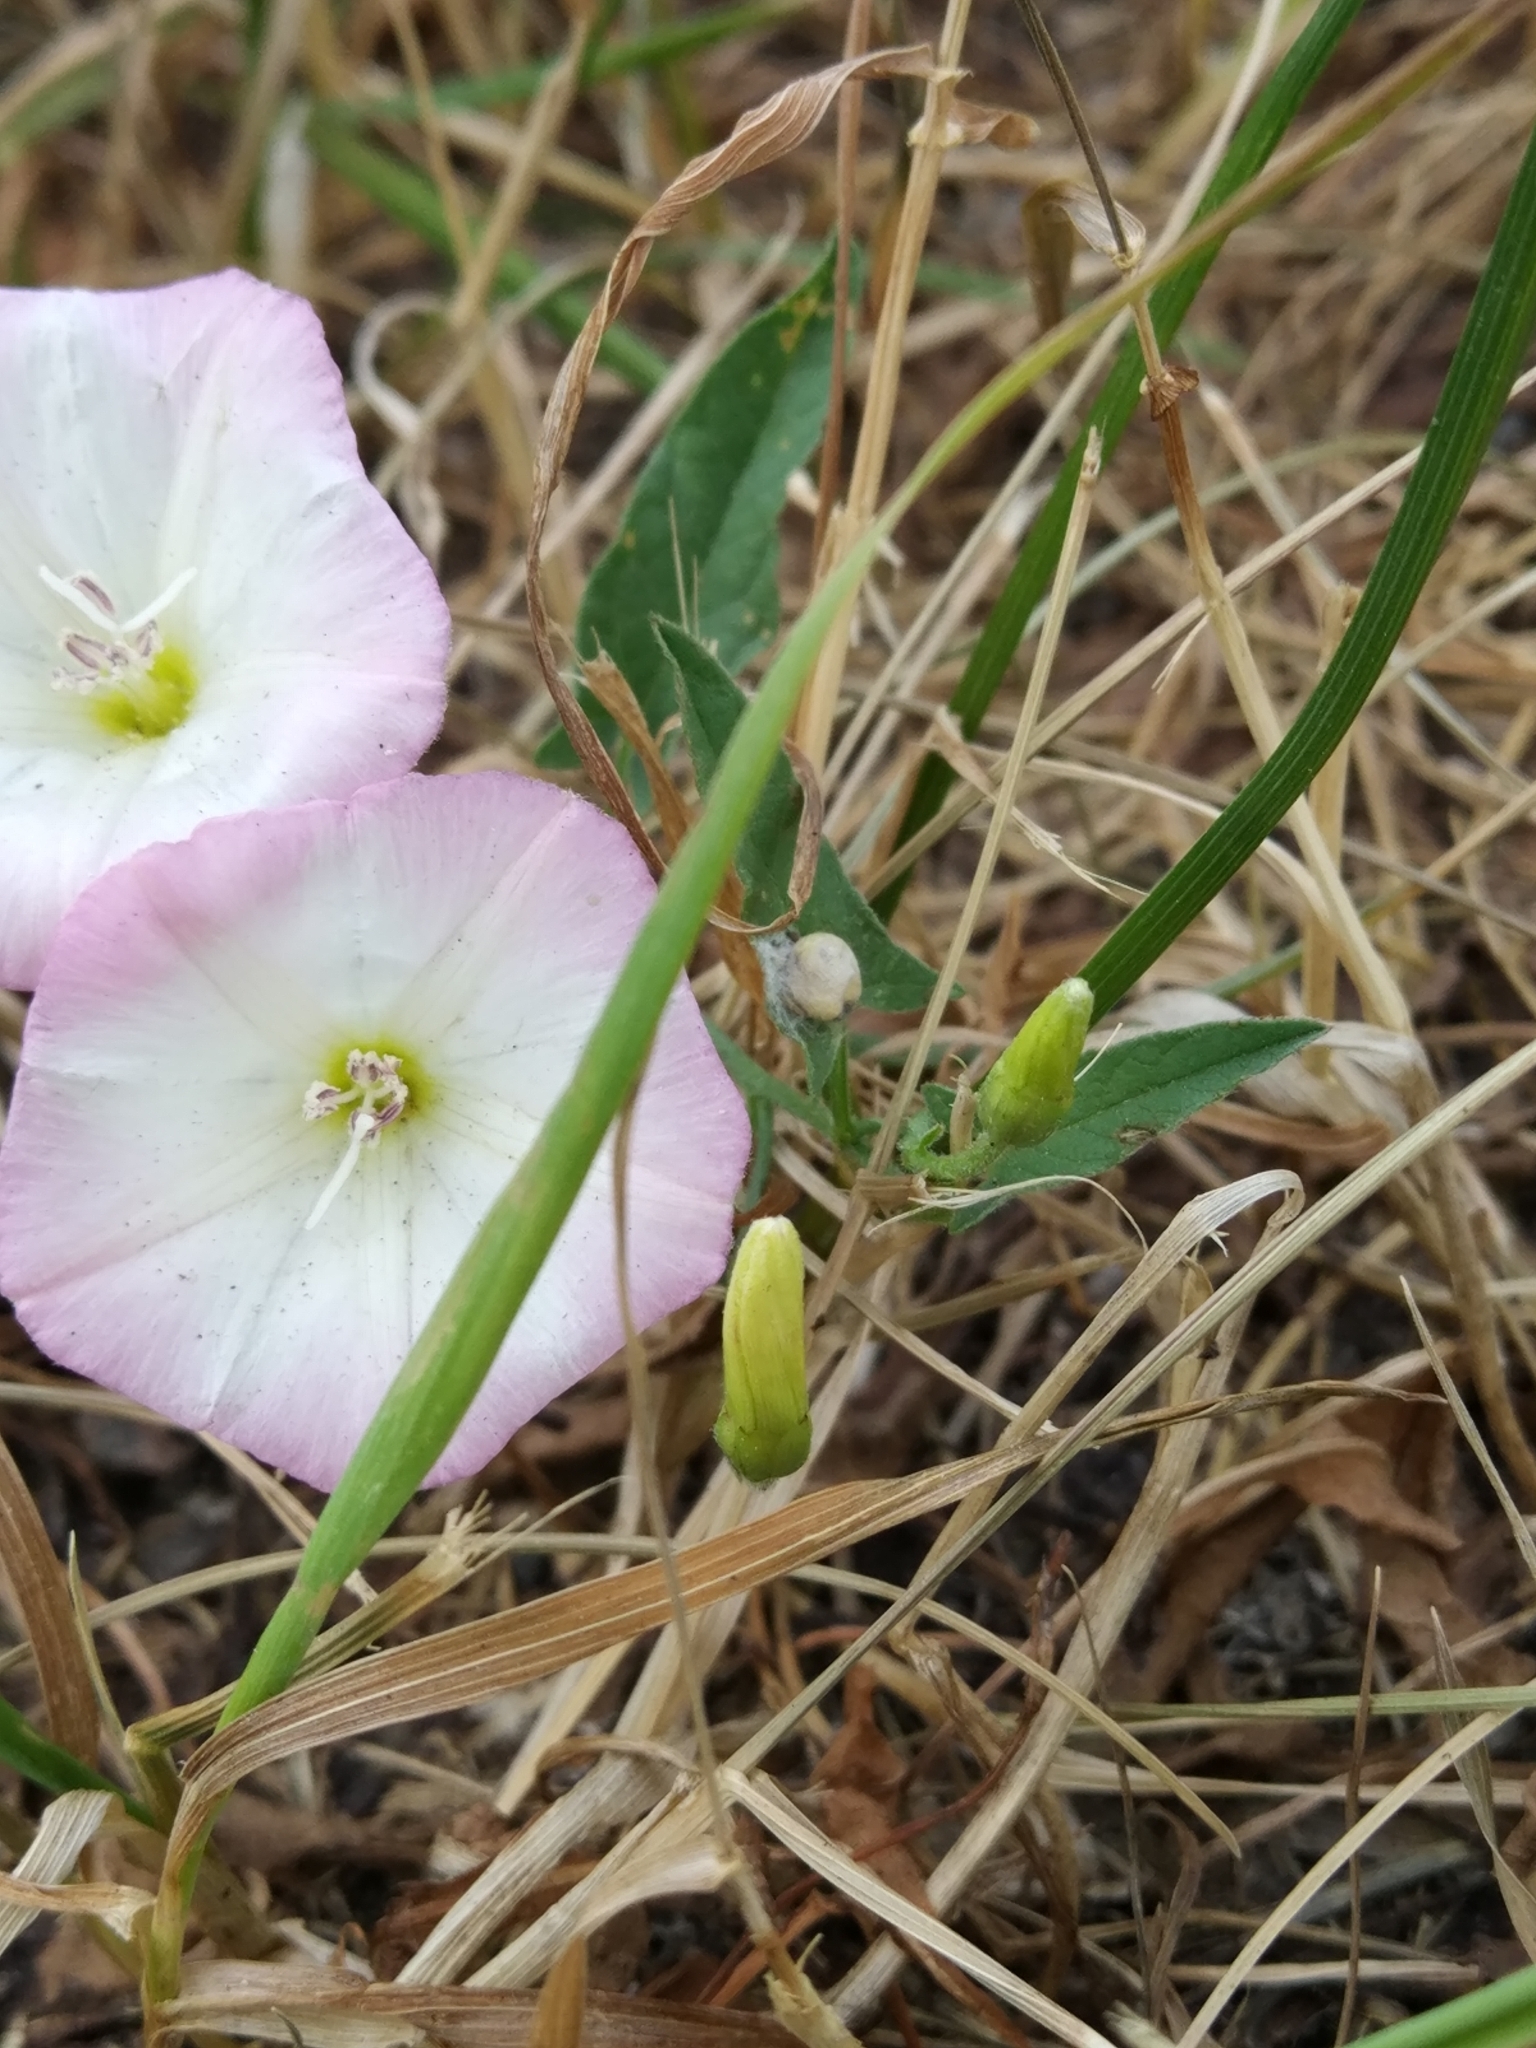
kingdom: Plantae
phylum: Tracheophyta
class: Magnoliopsida
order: Solanales
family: Convolvulaceae
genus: Convolvulus
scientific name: Convolvulus arvensis
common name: Field bindweed
